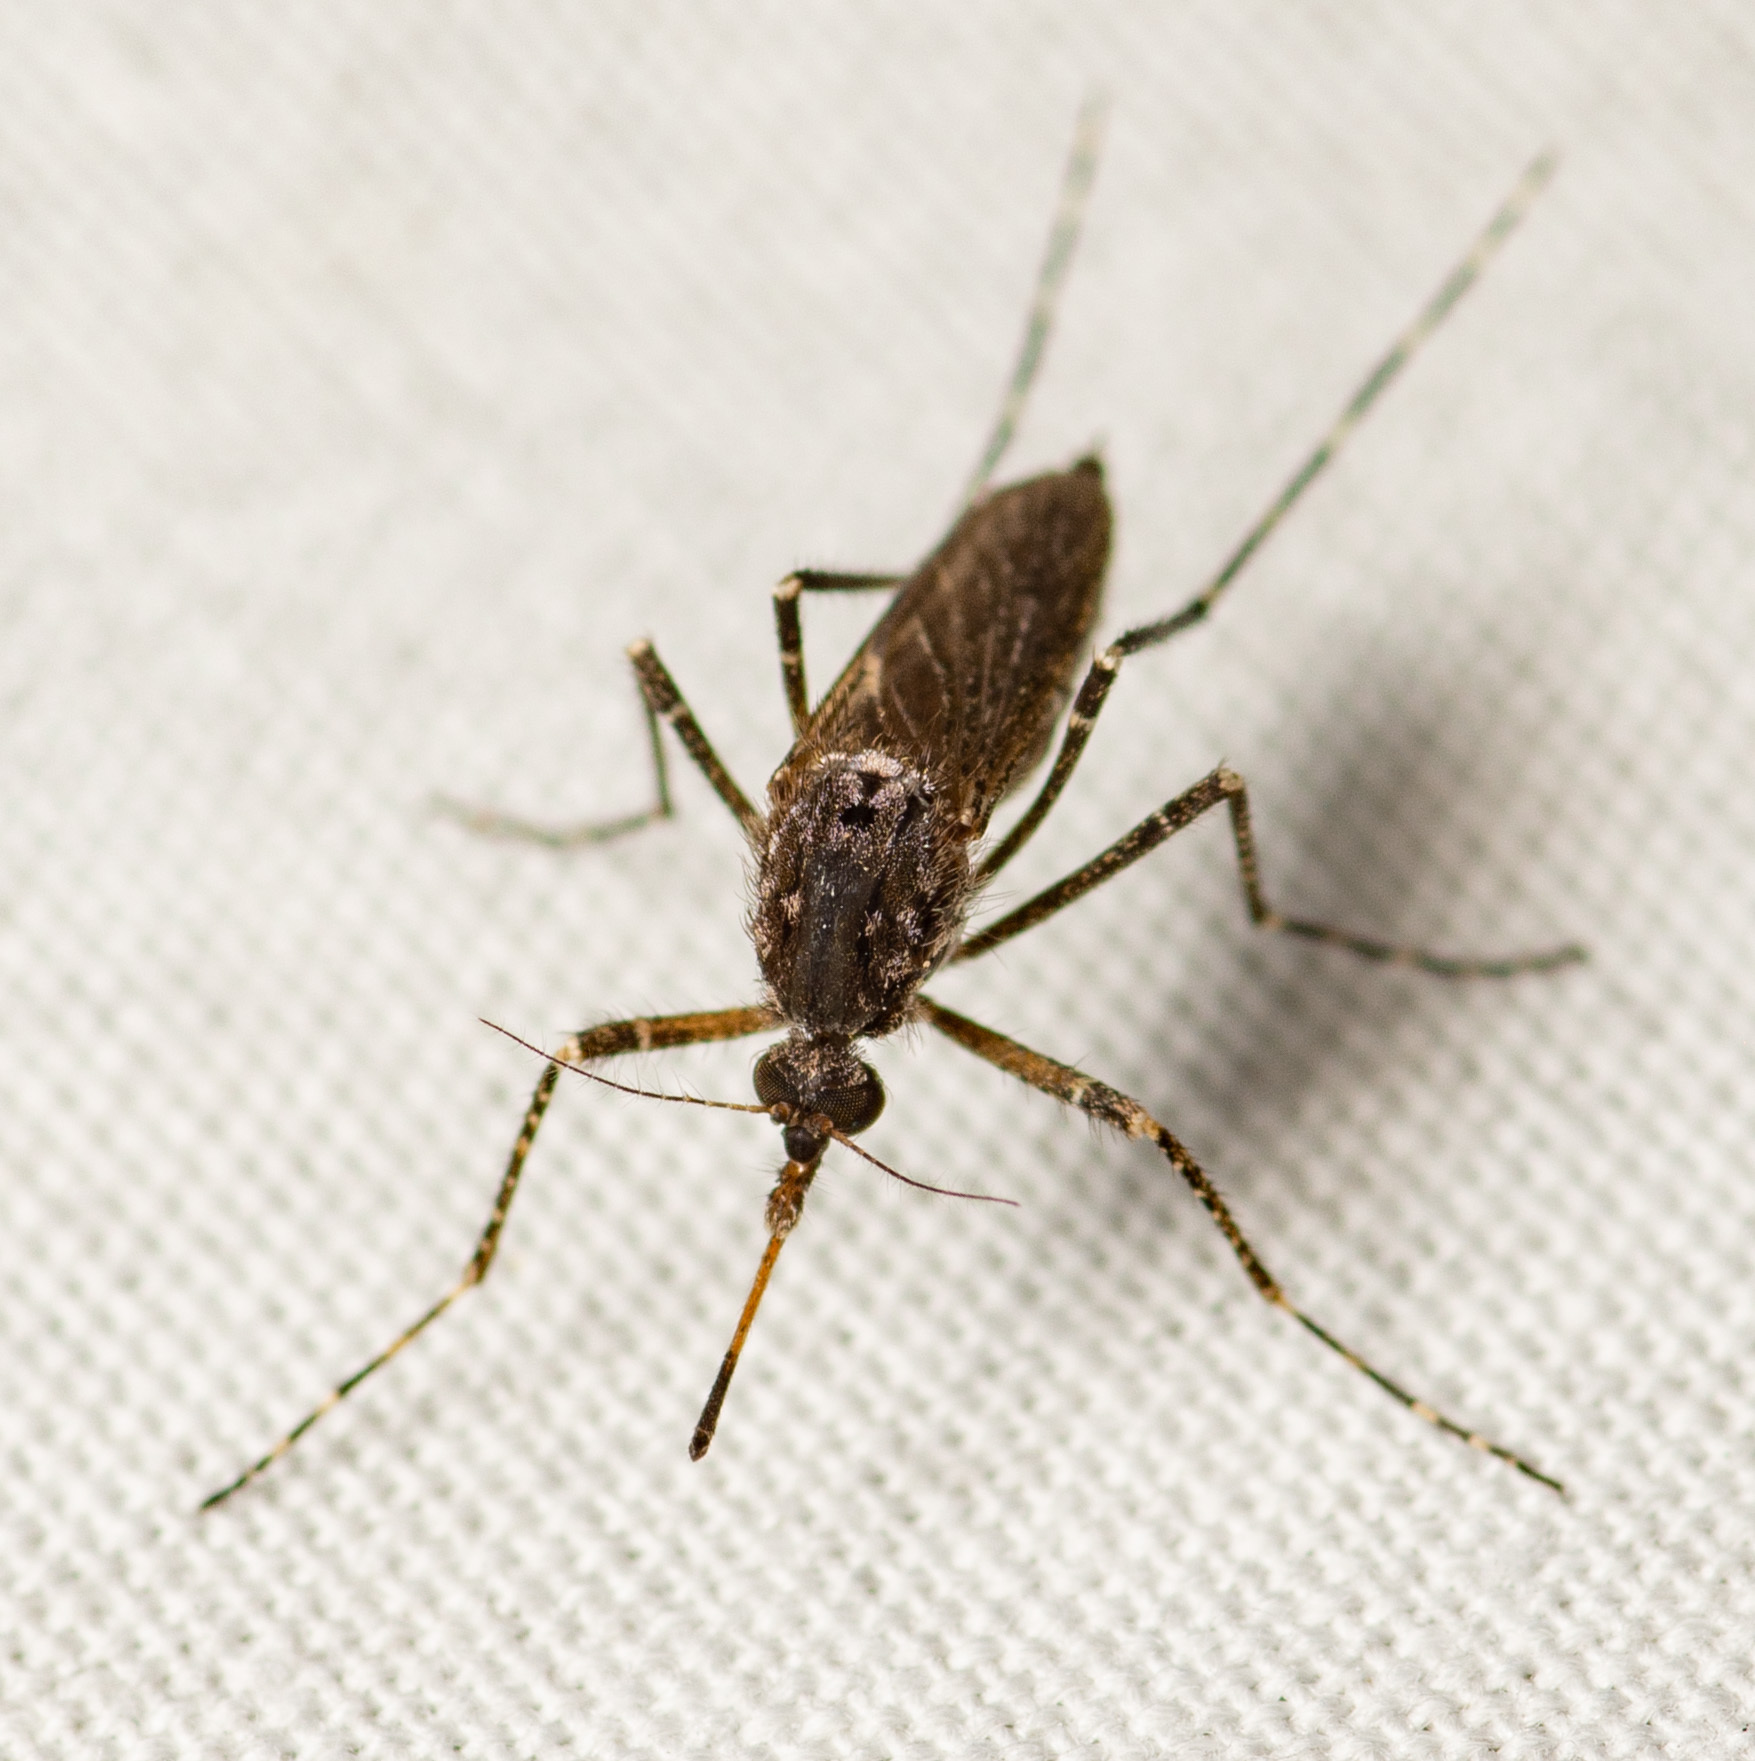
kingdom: Animalia
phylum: Arthropoda
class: Insecta
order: Diptera
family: Culicidae
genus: Psorophora
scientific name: Psorophora columbiae
